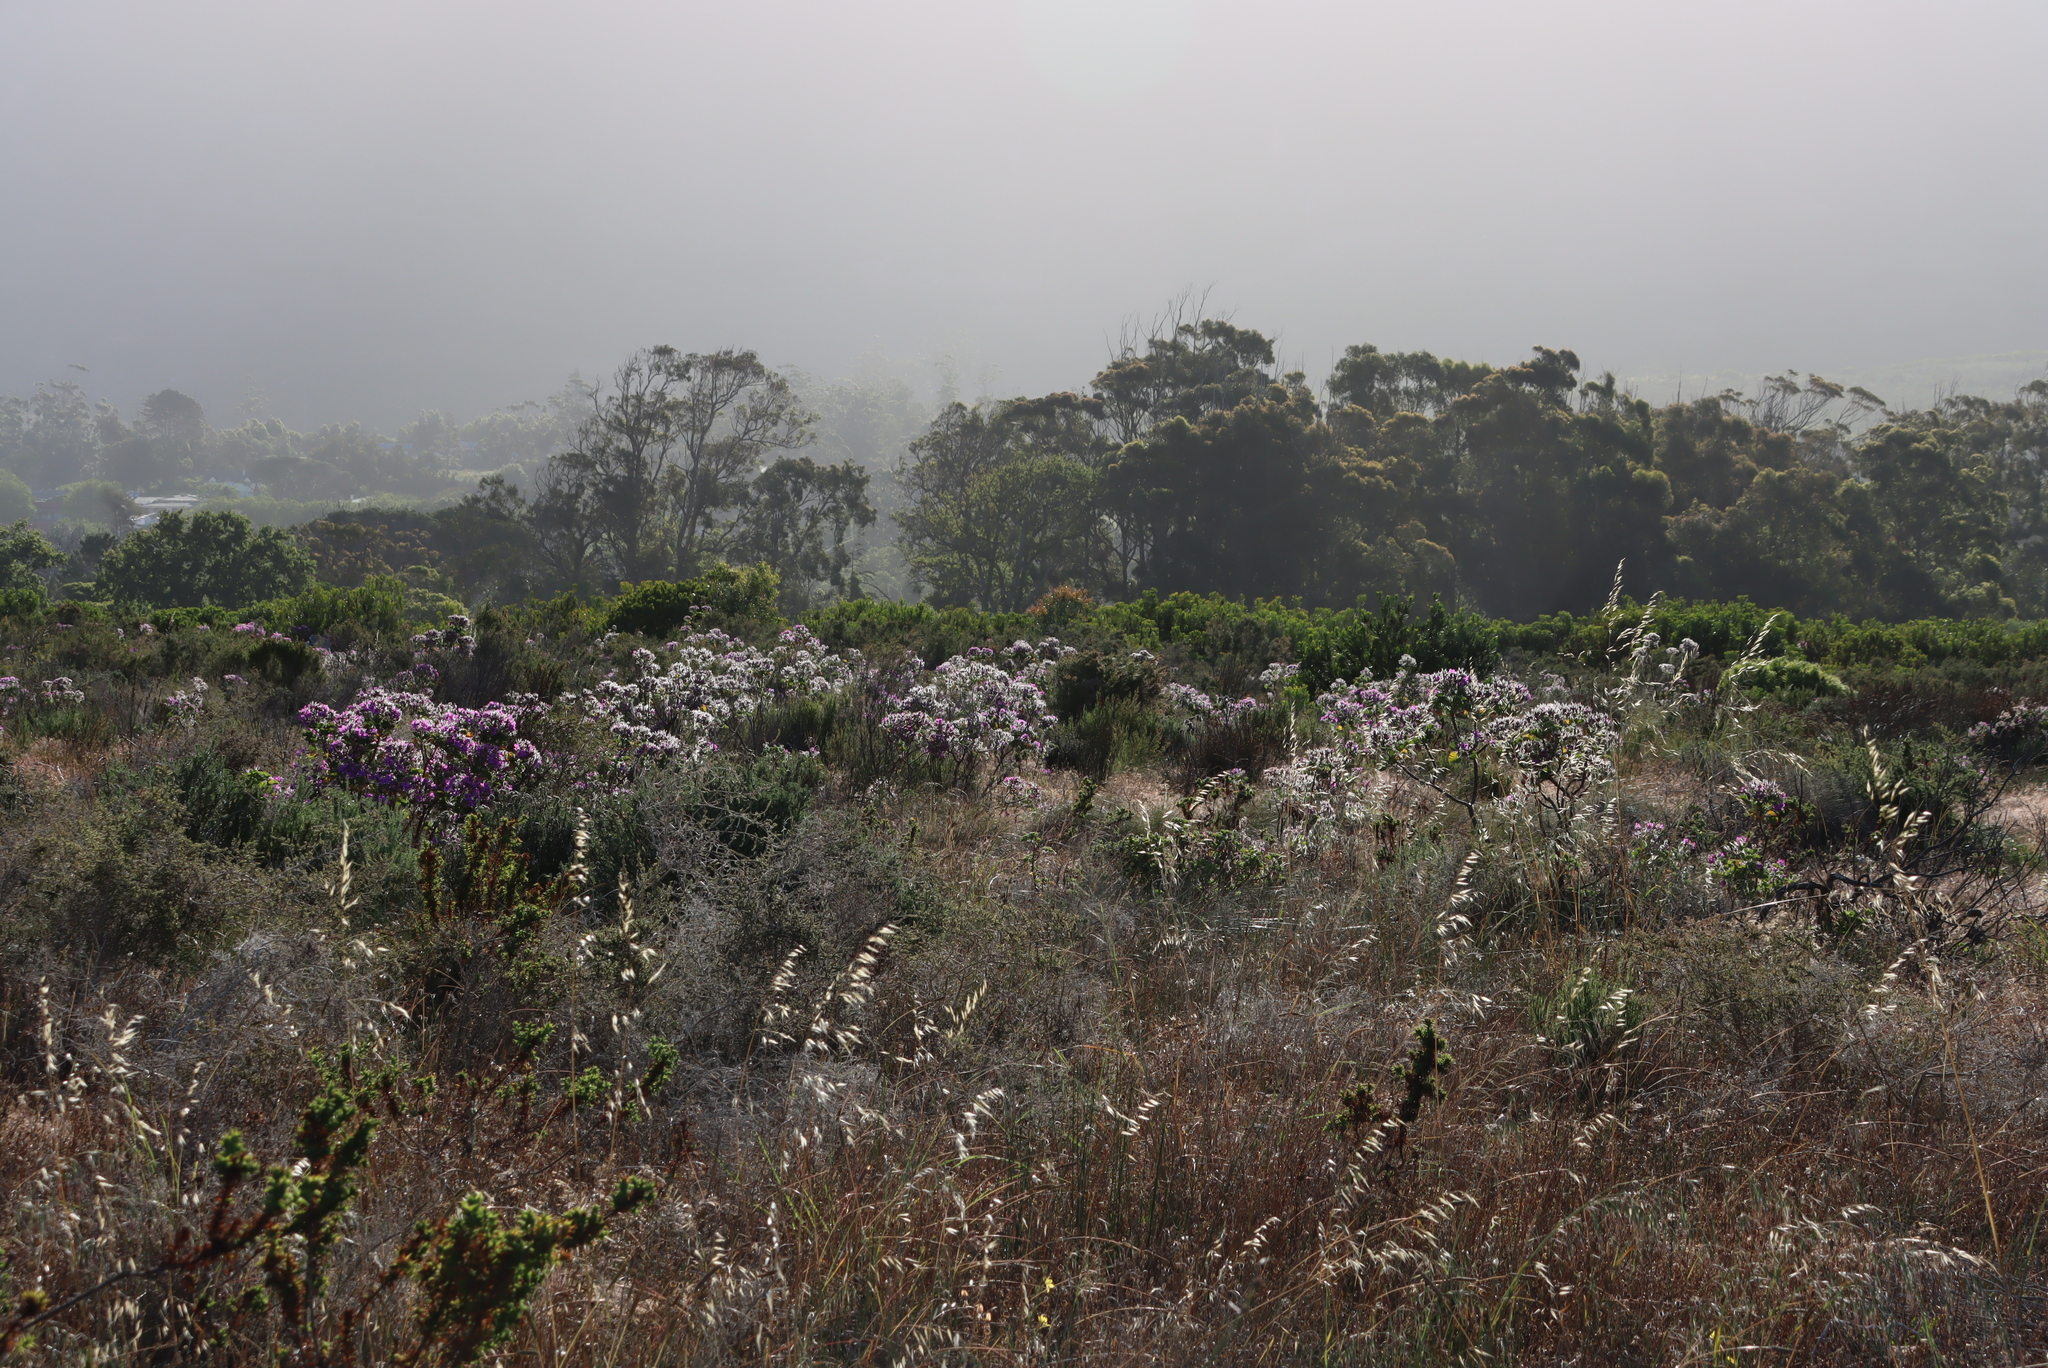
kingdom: Plantae
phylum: Tracheophyta
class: Magnoliopsida
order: Geraniales
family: Geraniaceae
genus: Pelargonium
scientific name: Pelargonium cucullatum
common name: Tree pelargonium
